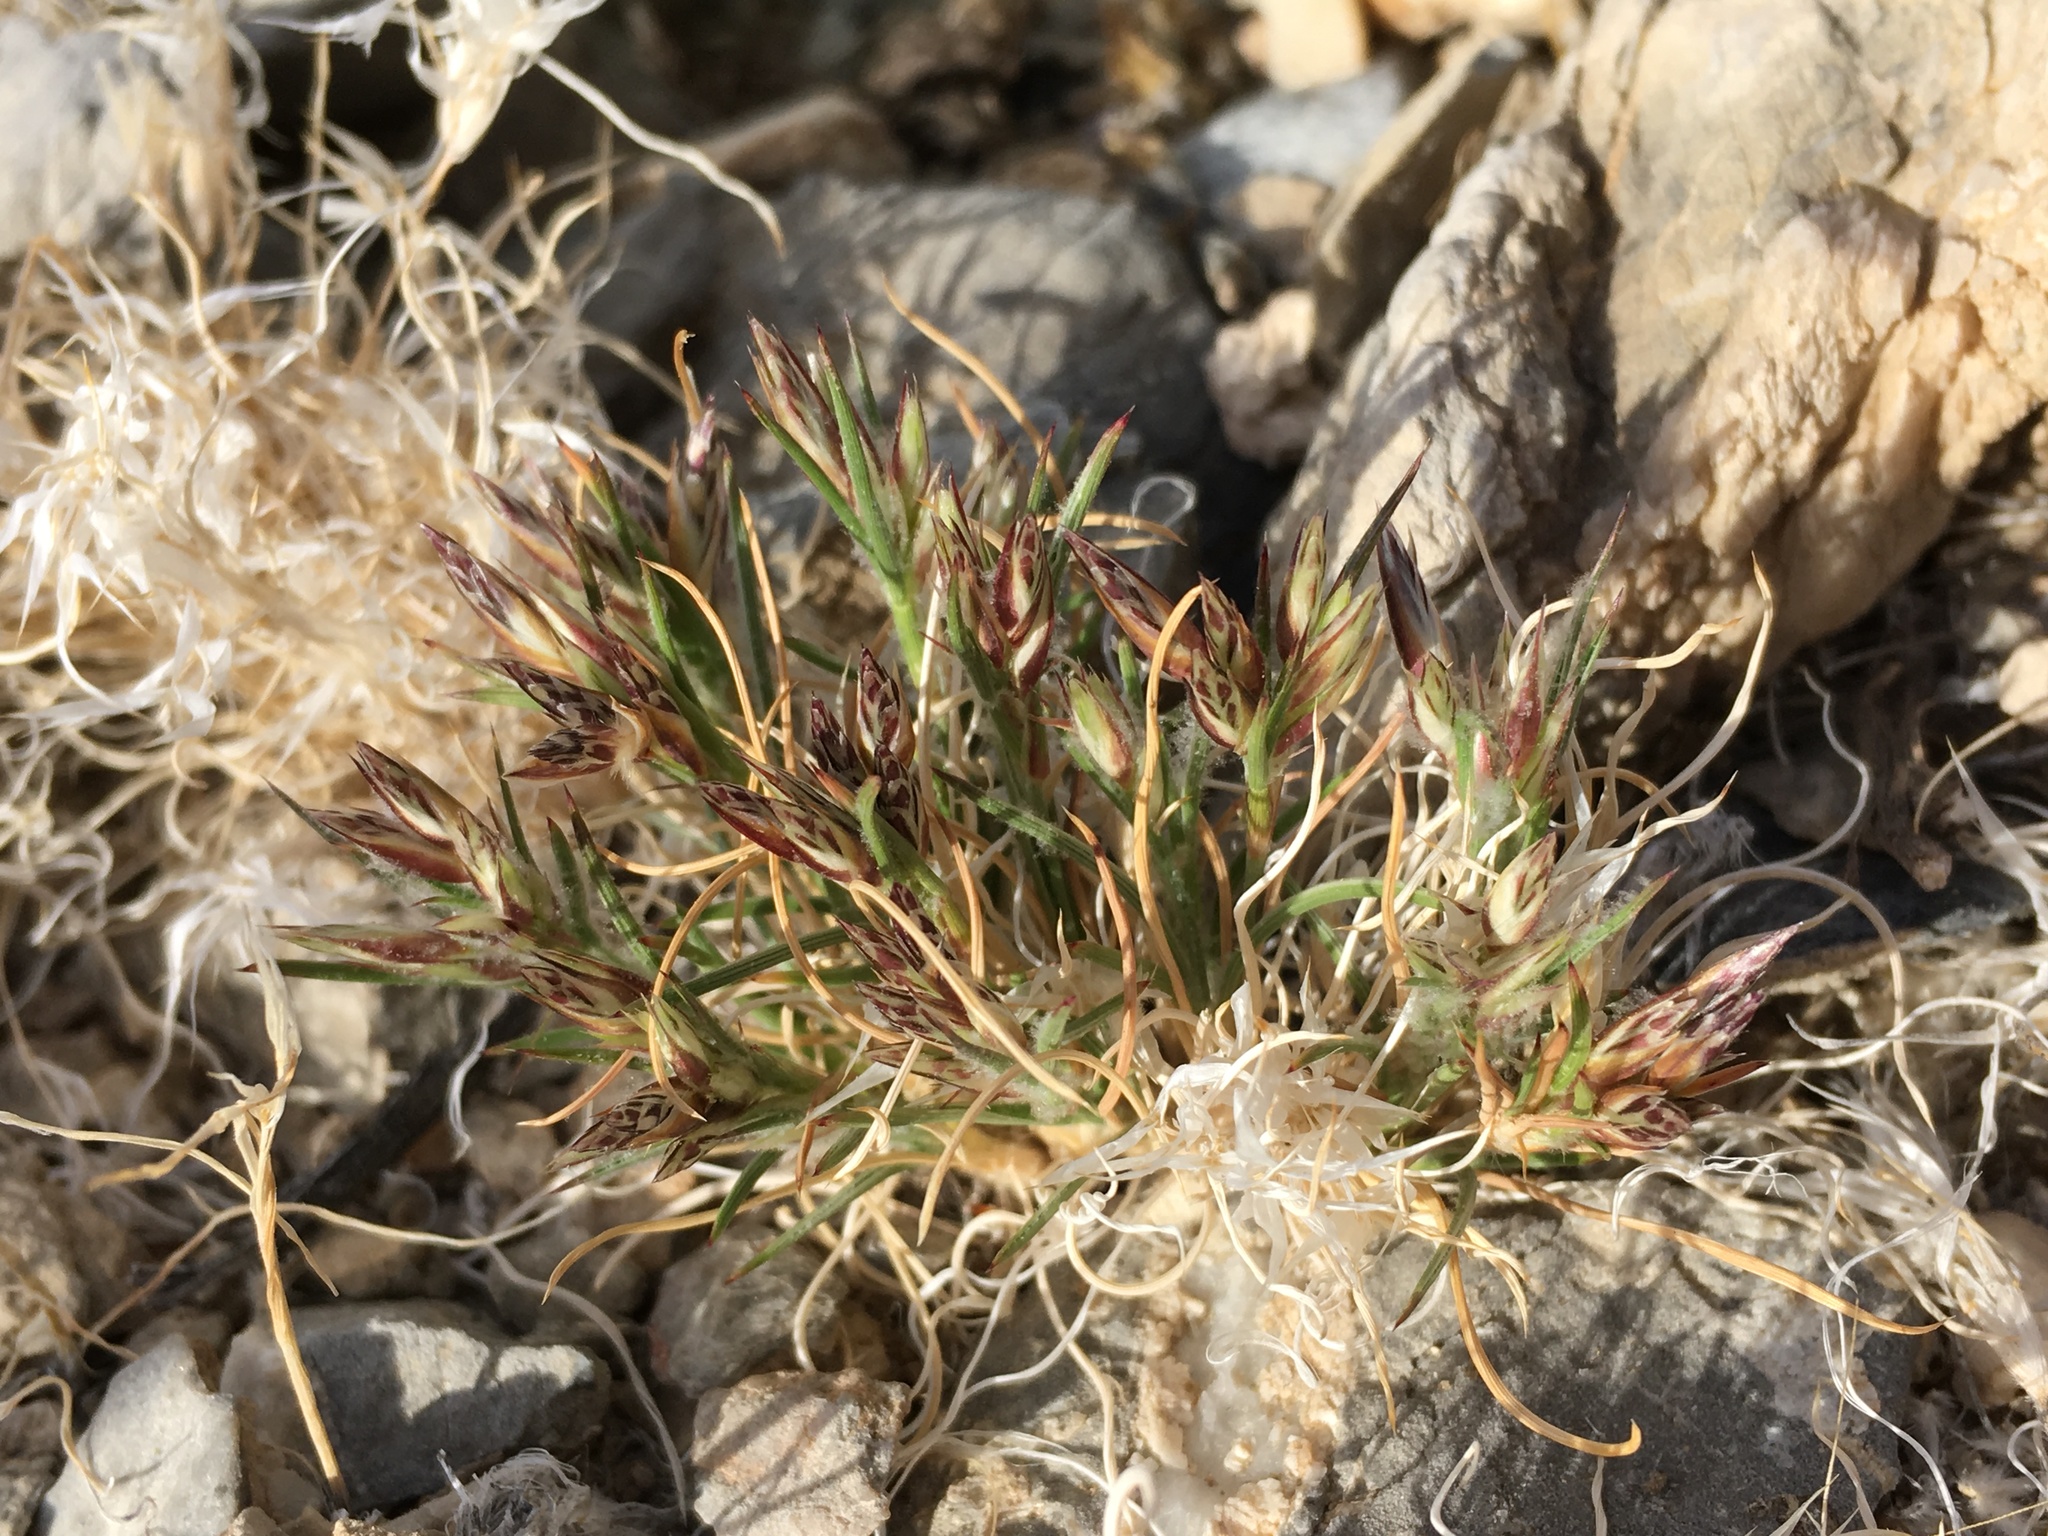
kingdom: Plantae
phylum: Tracheophyta
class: Liliopsida
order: Poales
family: Poaceae
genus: Dasyochloa
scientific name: Dasyochloa pulchella
